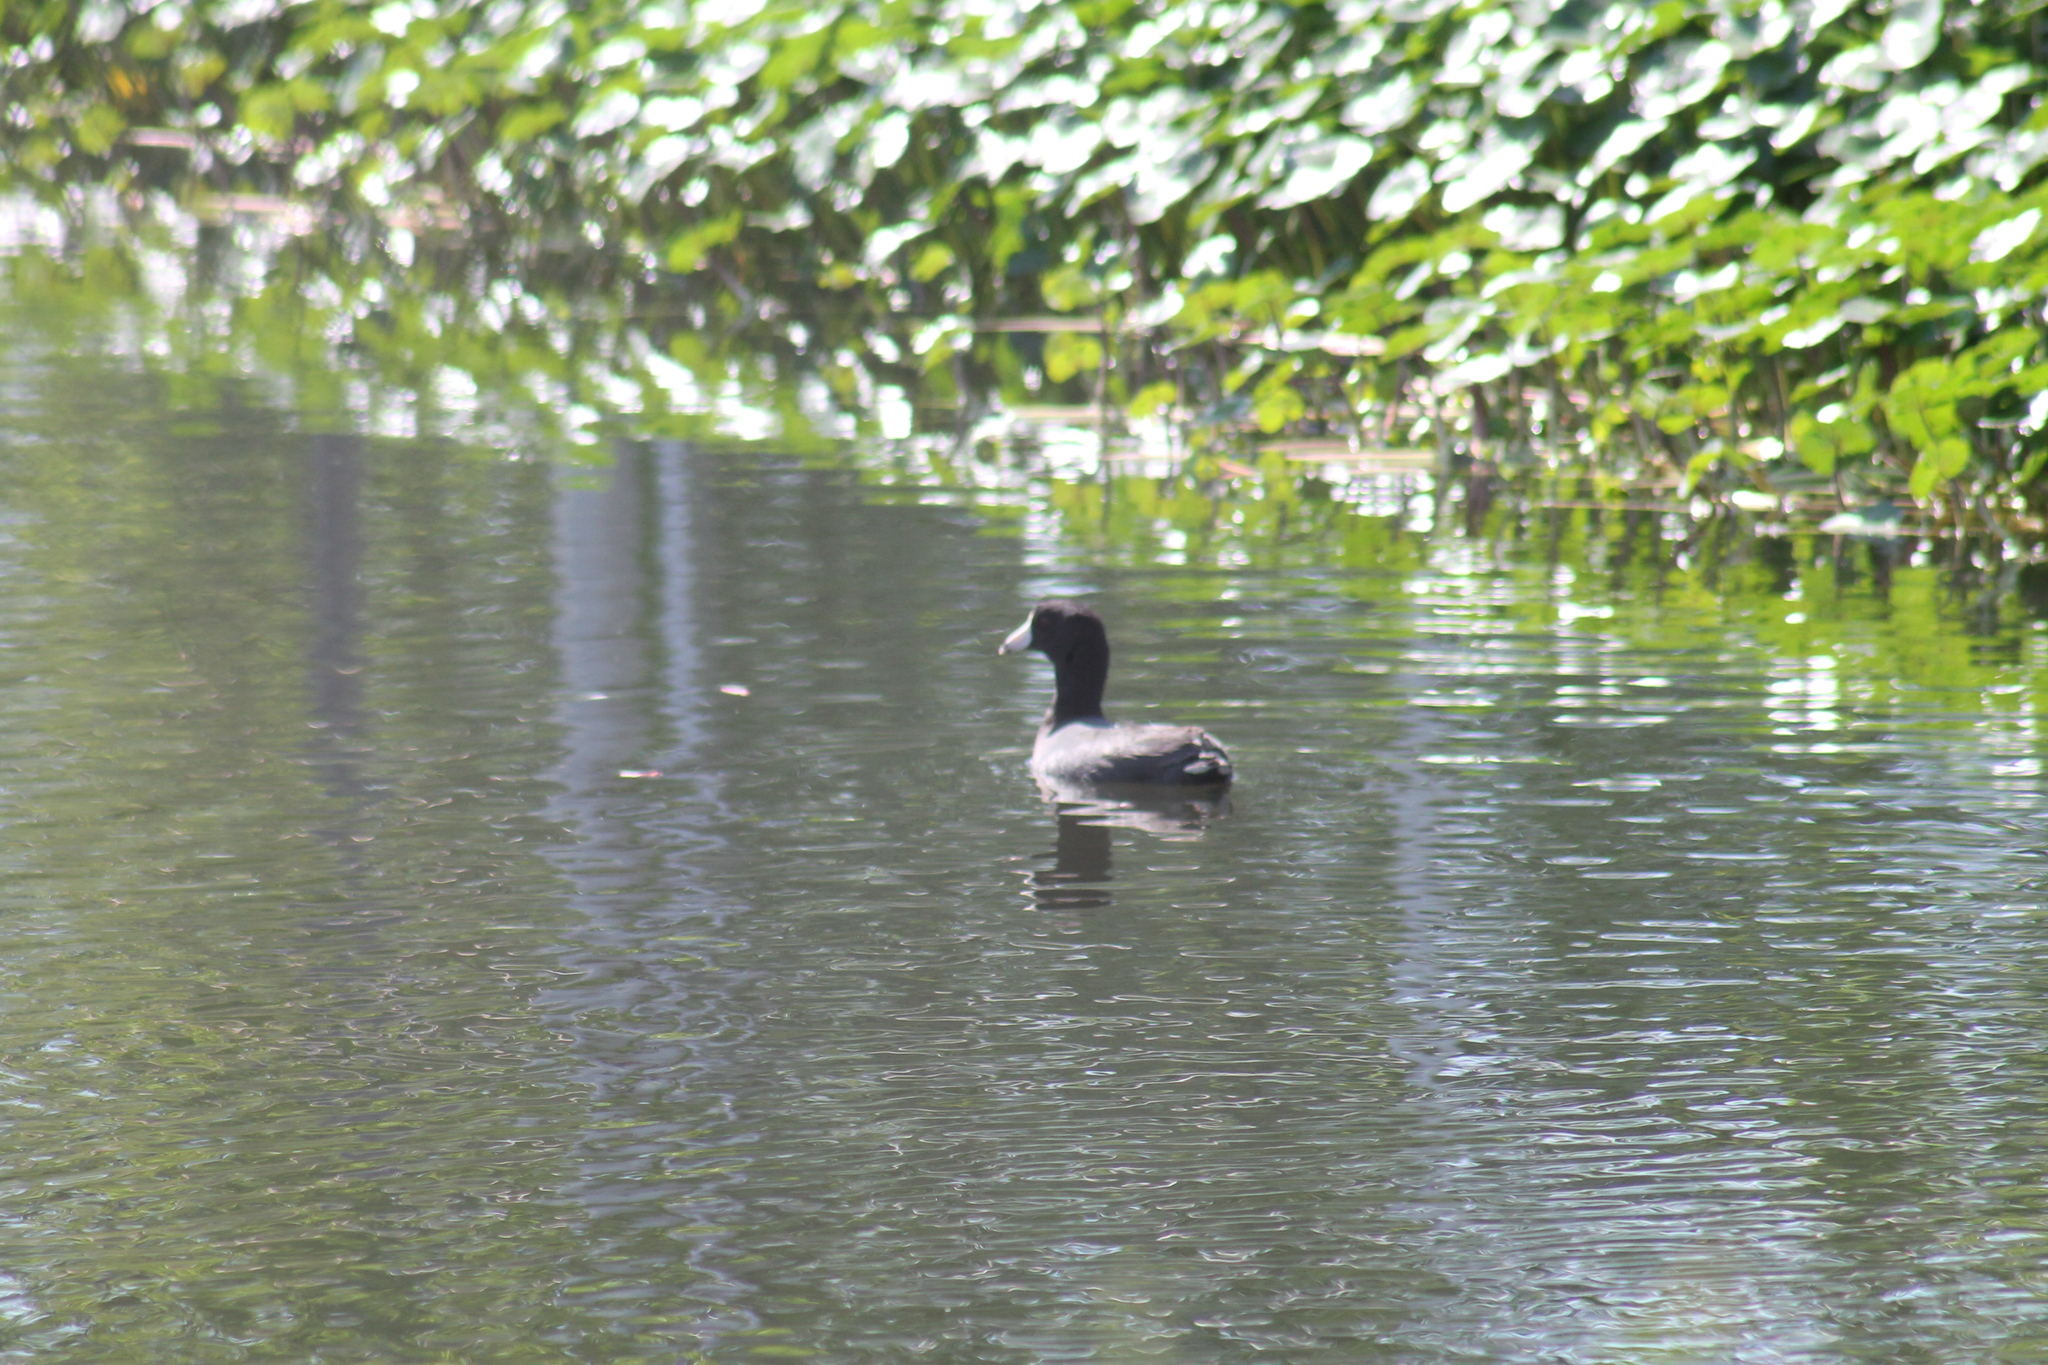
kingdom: Animalia
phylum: Chordata
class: Aves
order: Gruiformes
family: Rallidae
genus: Fulica
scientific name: Fulica americana
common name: American coot
